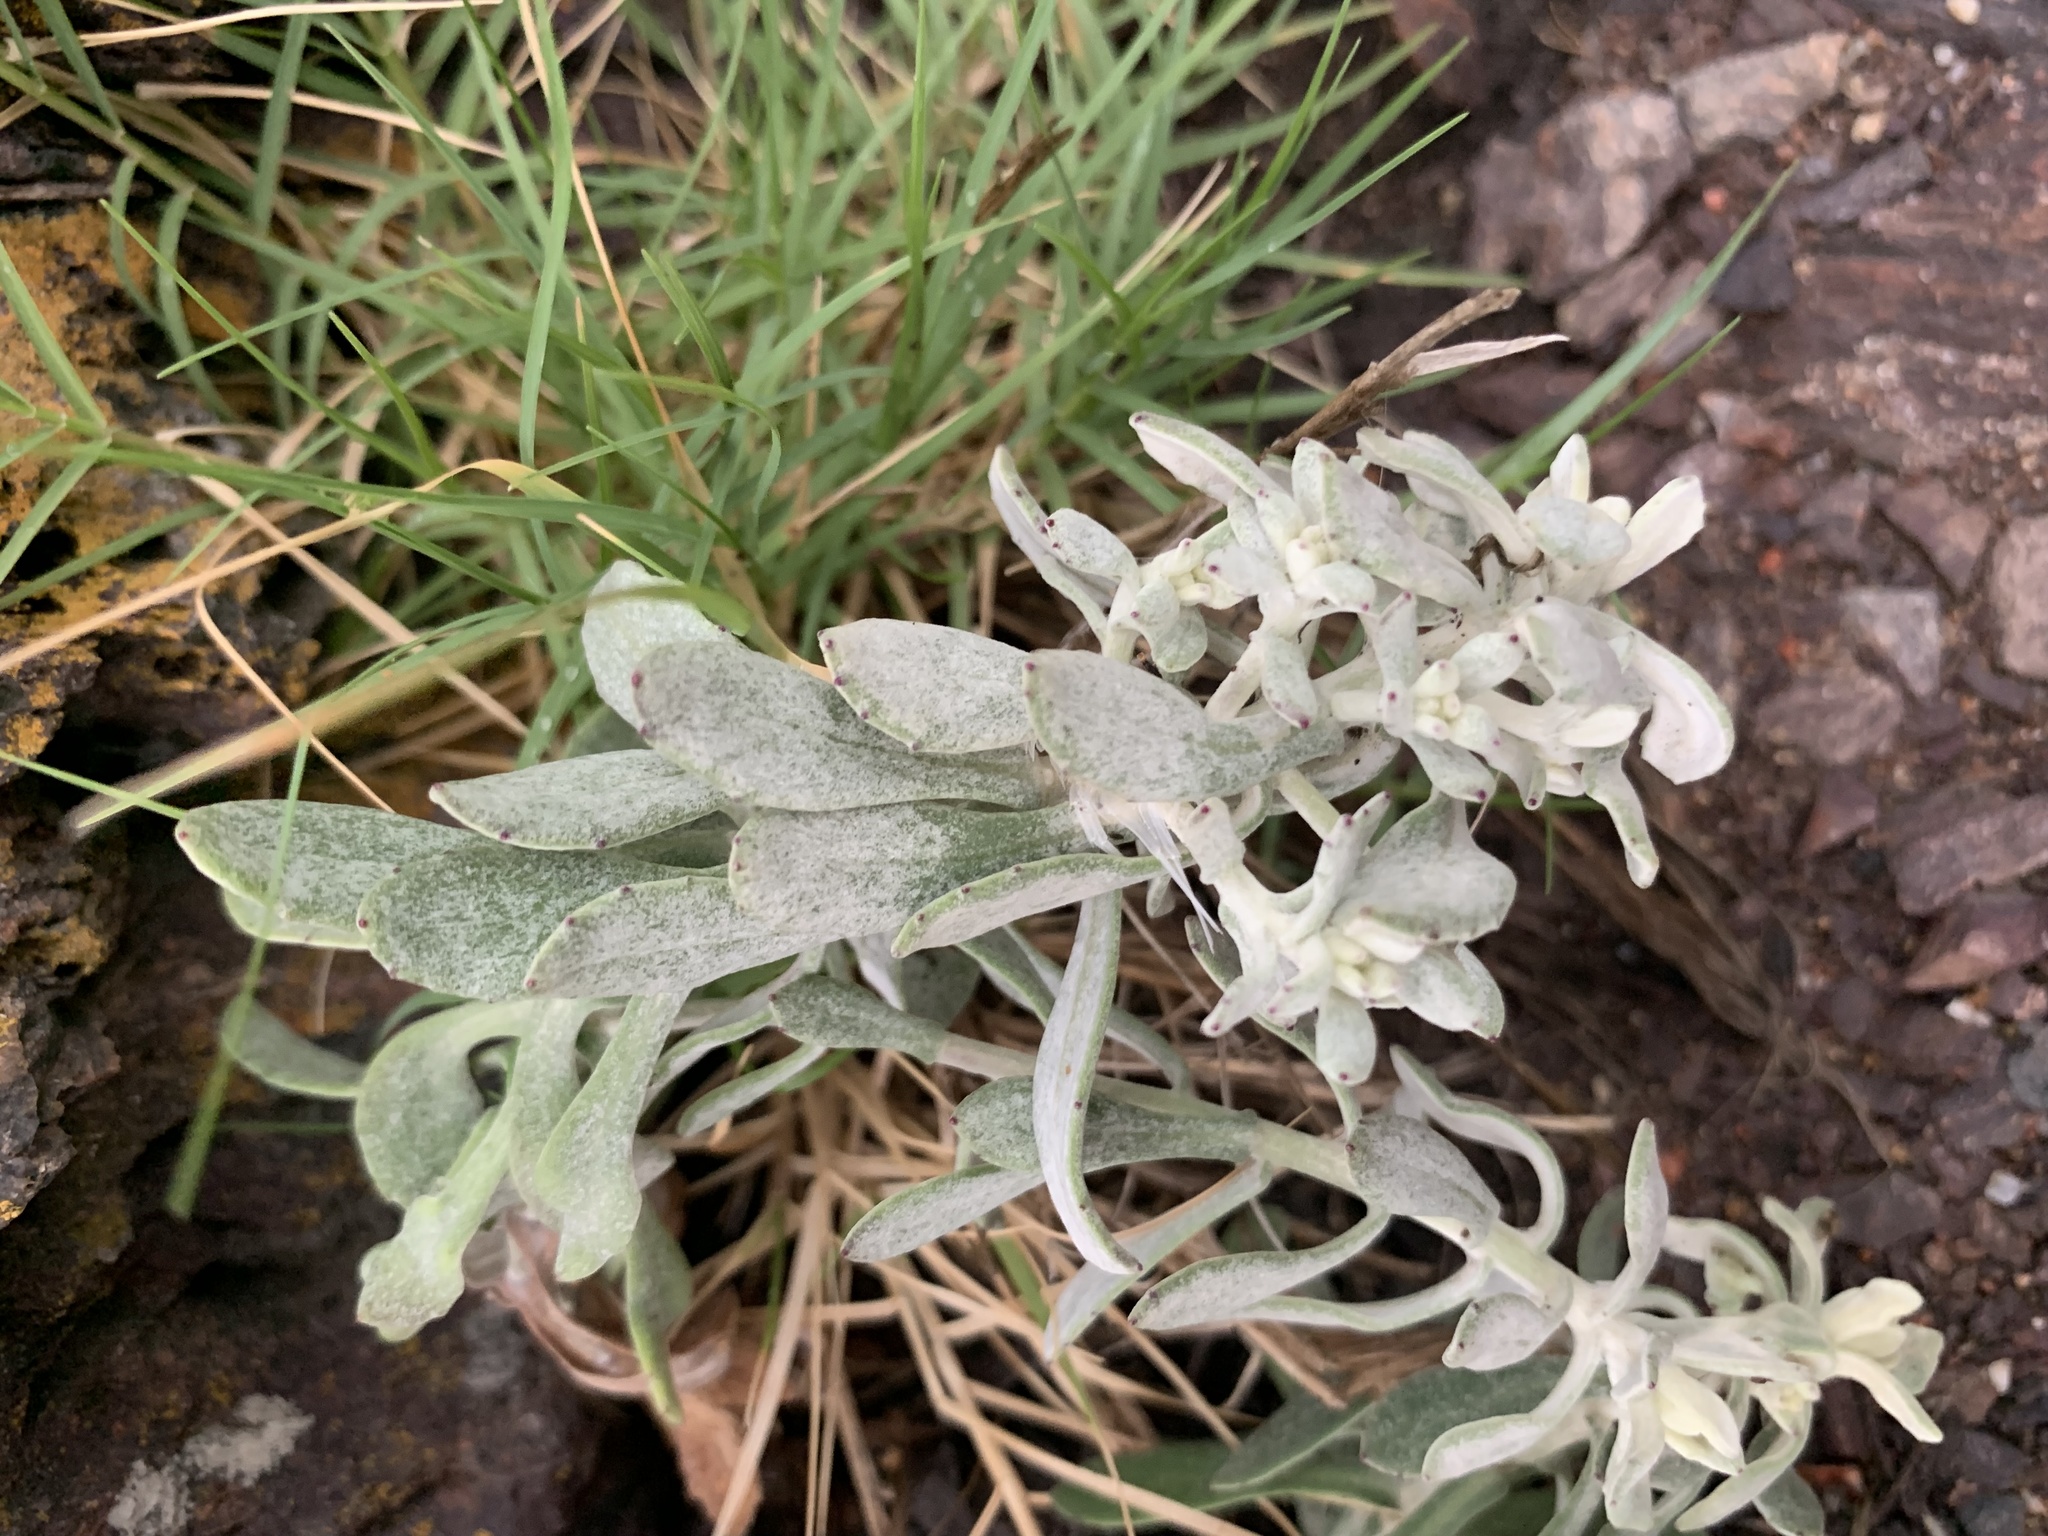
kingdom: Plantae
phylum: Tracheophyta
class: Magnoliopsida
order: Asterales
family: Asteraceae
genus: Senecio
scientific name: Senecio ostenii
